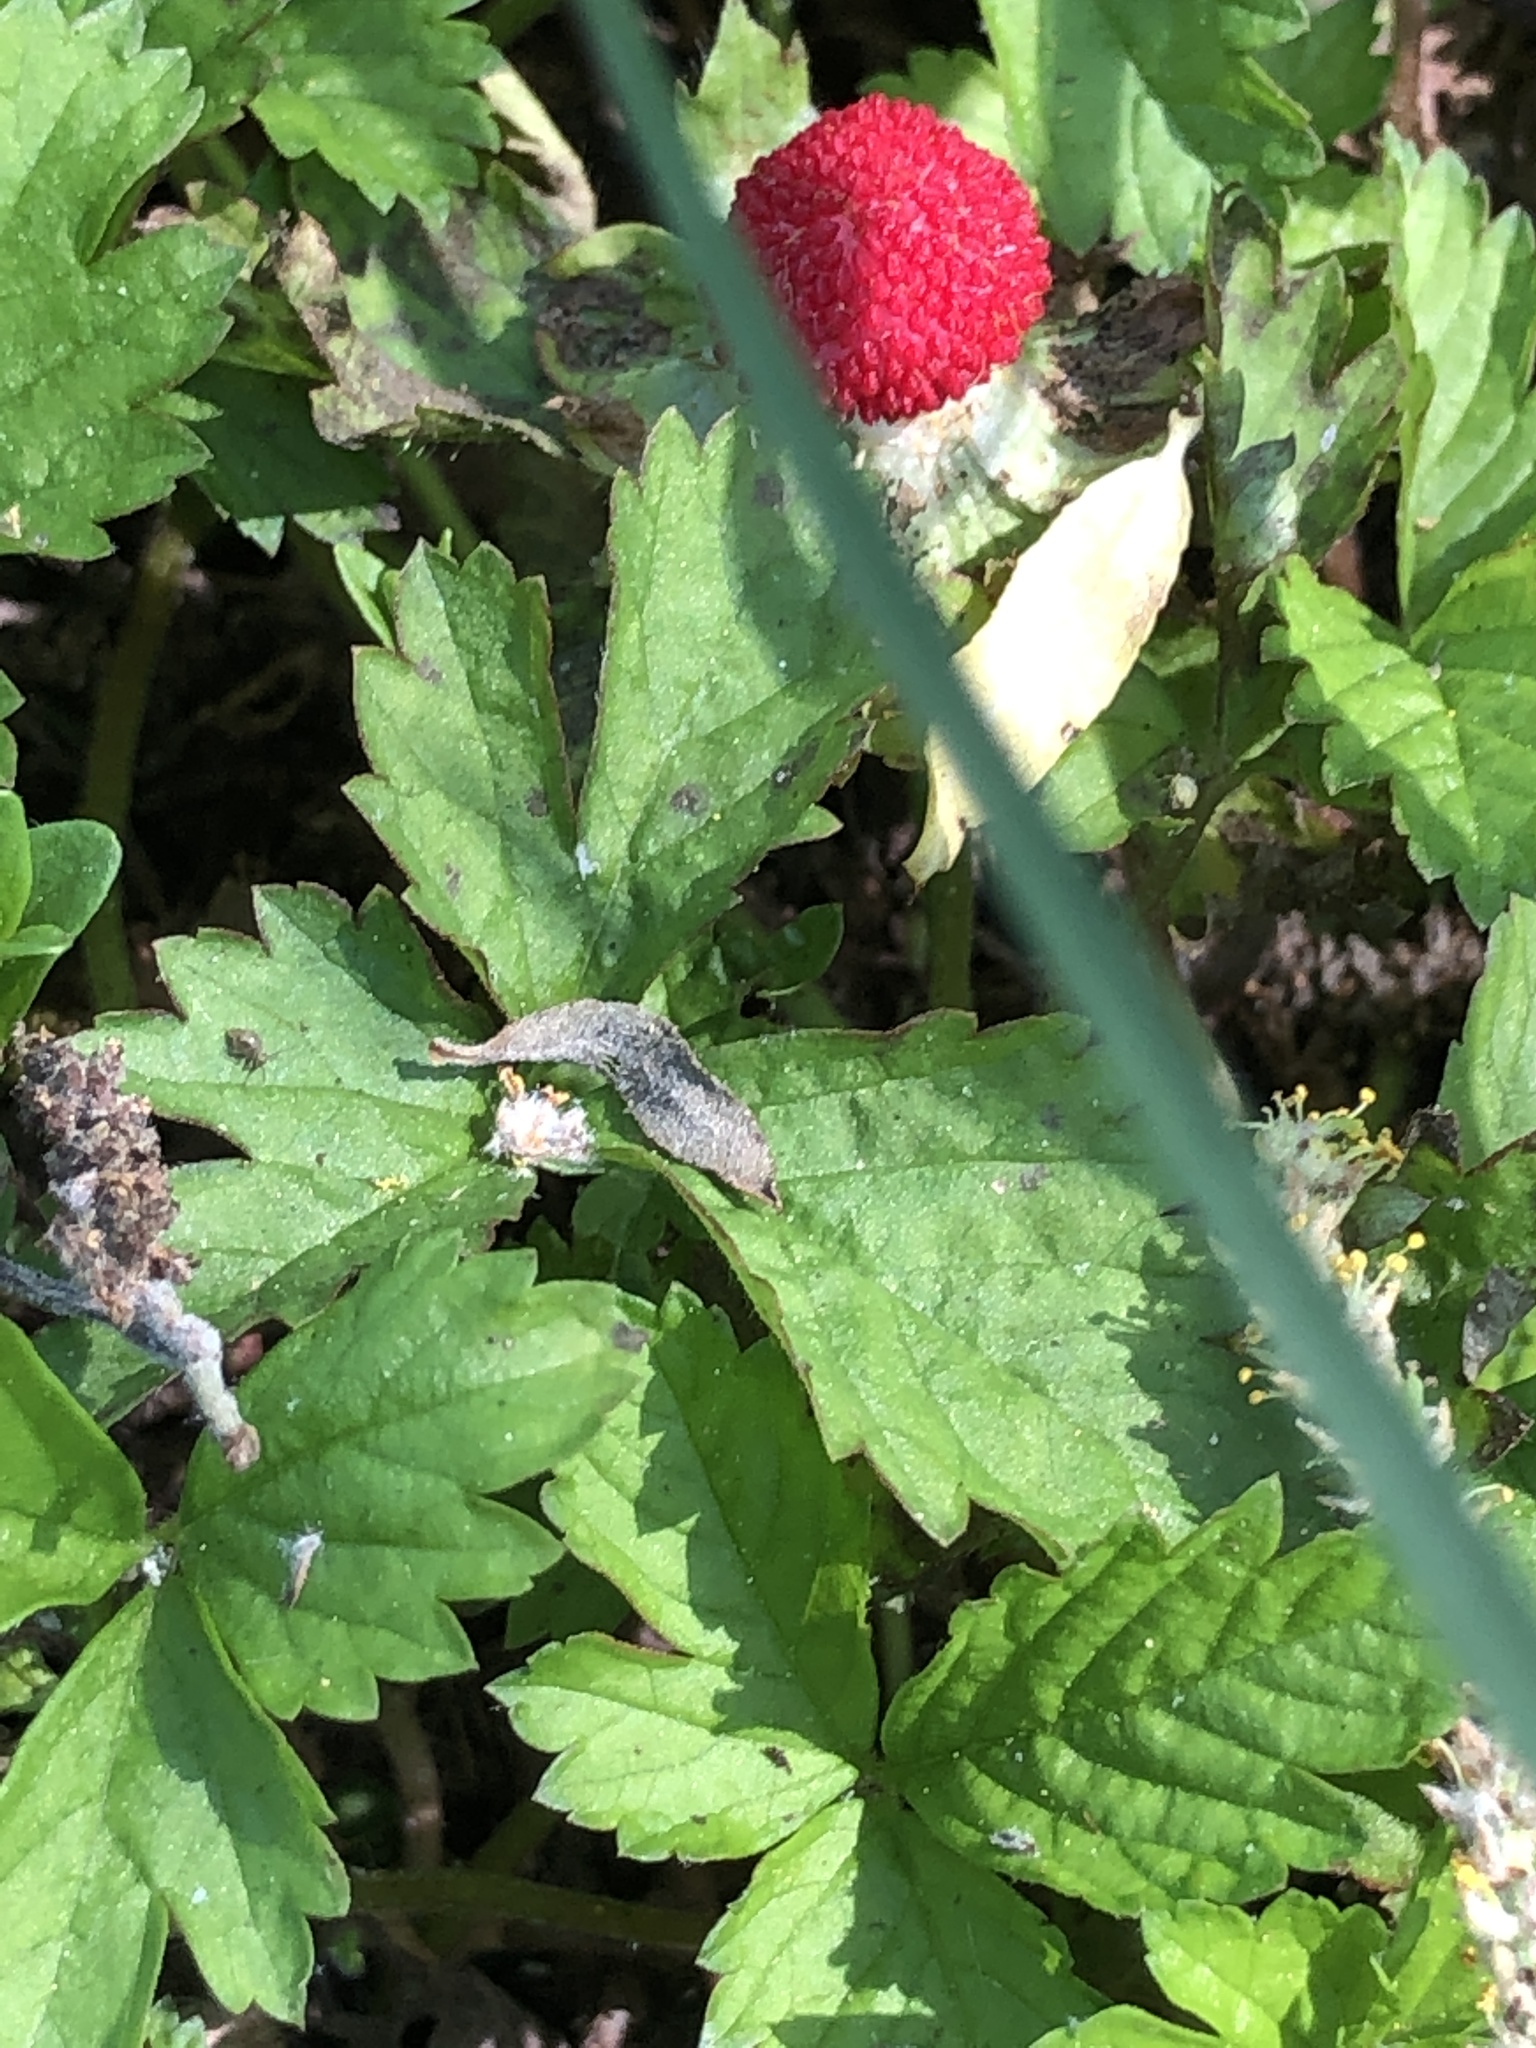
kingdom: Plantae
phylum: Tracheophyta
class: Magnoliopsida
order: Rosales
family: Rosaceae
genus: Potentilla
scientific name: Potentilla indica
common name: Yellow-flowered strawberry
